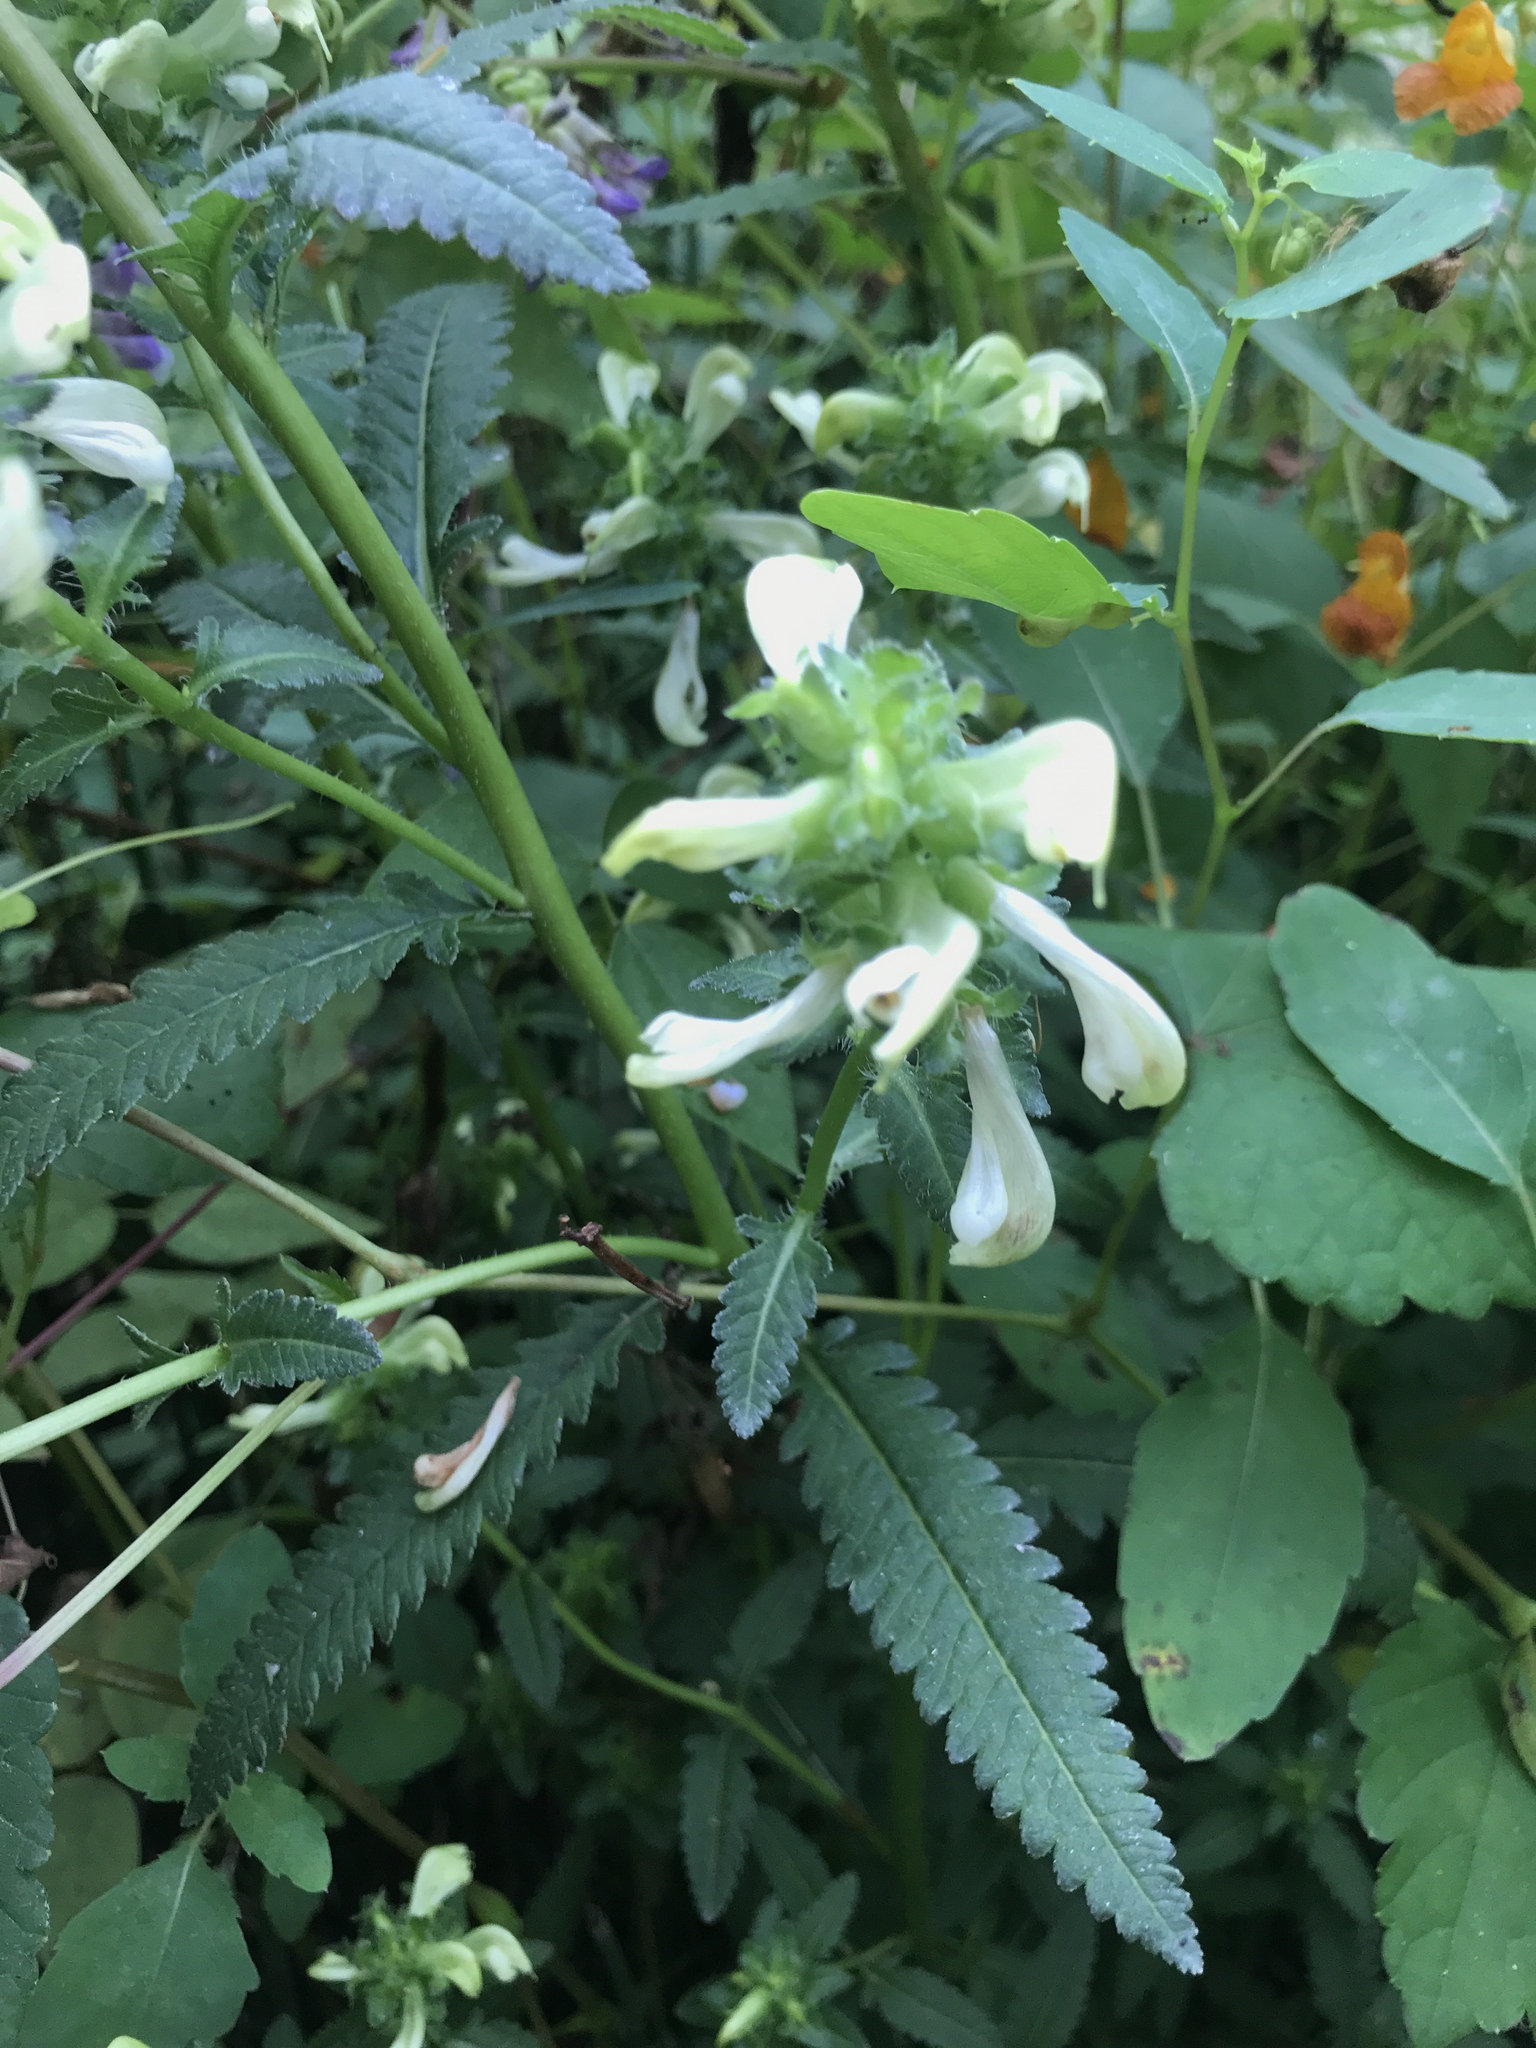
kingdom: Plantae
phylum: Tracheophyta
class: Magnoliopsida
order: Lamiales
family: Orobanchaceae
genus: Pedicularis
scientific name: Pedicularis lanceolata
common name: Swamp lousewort
